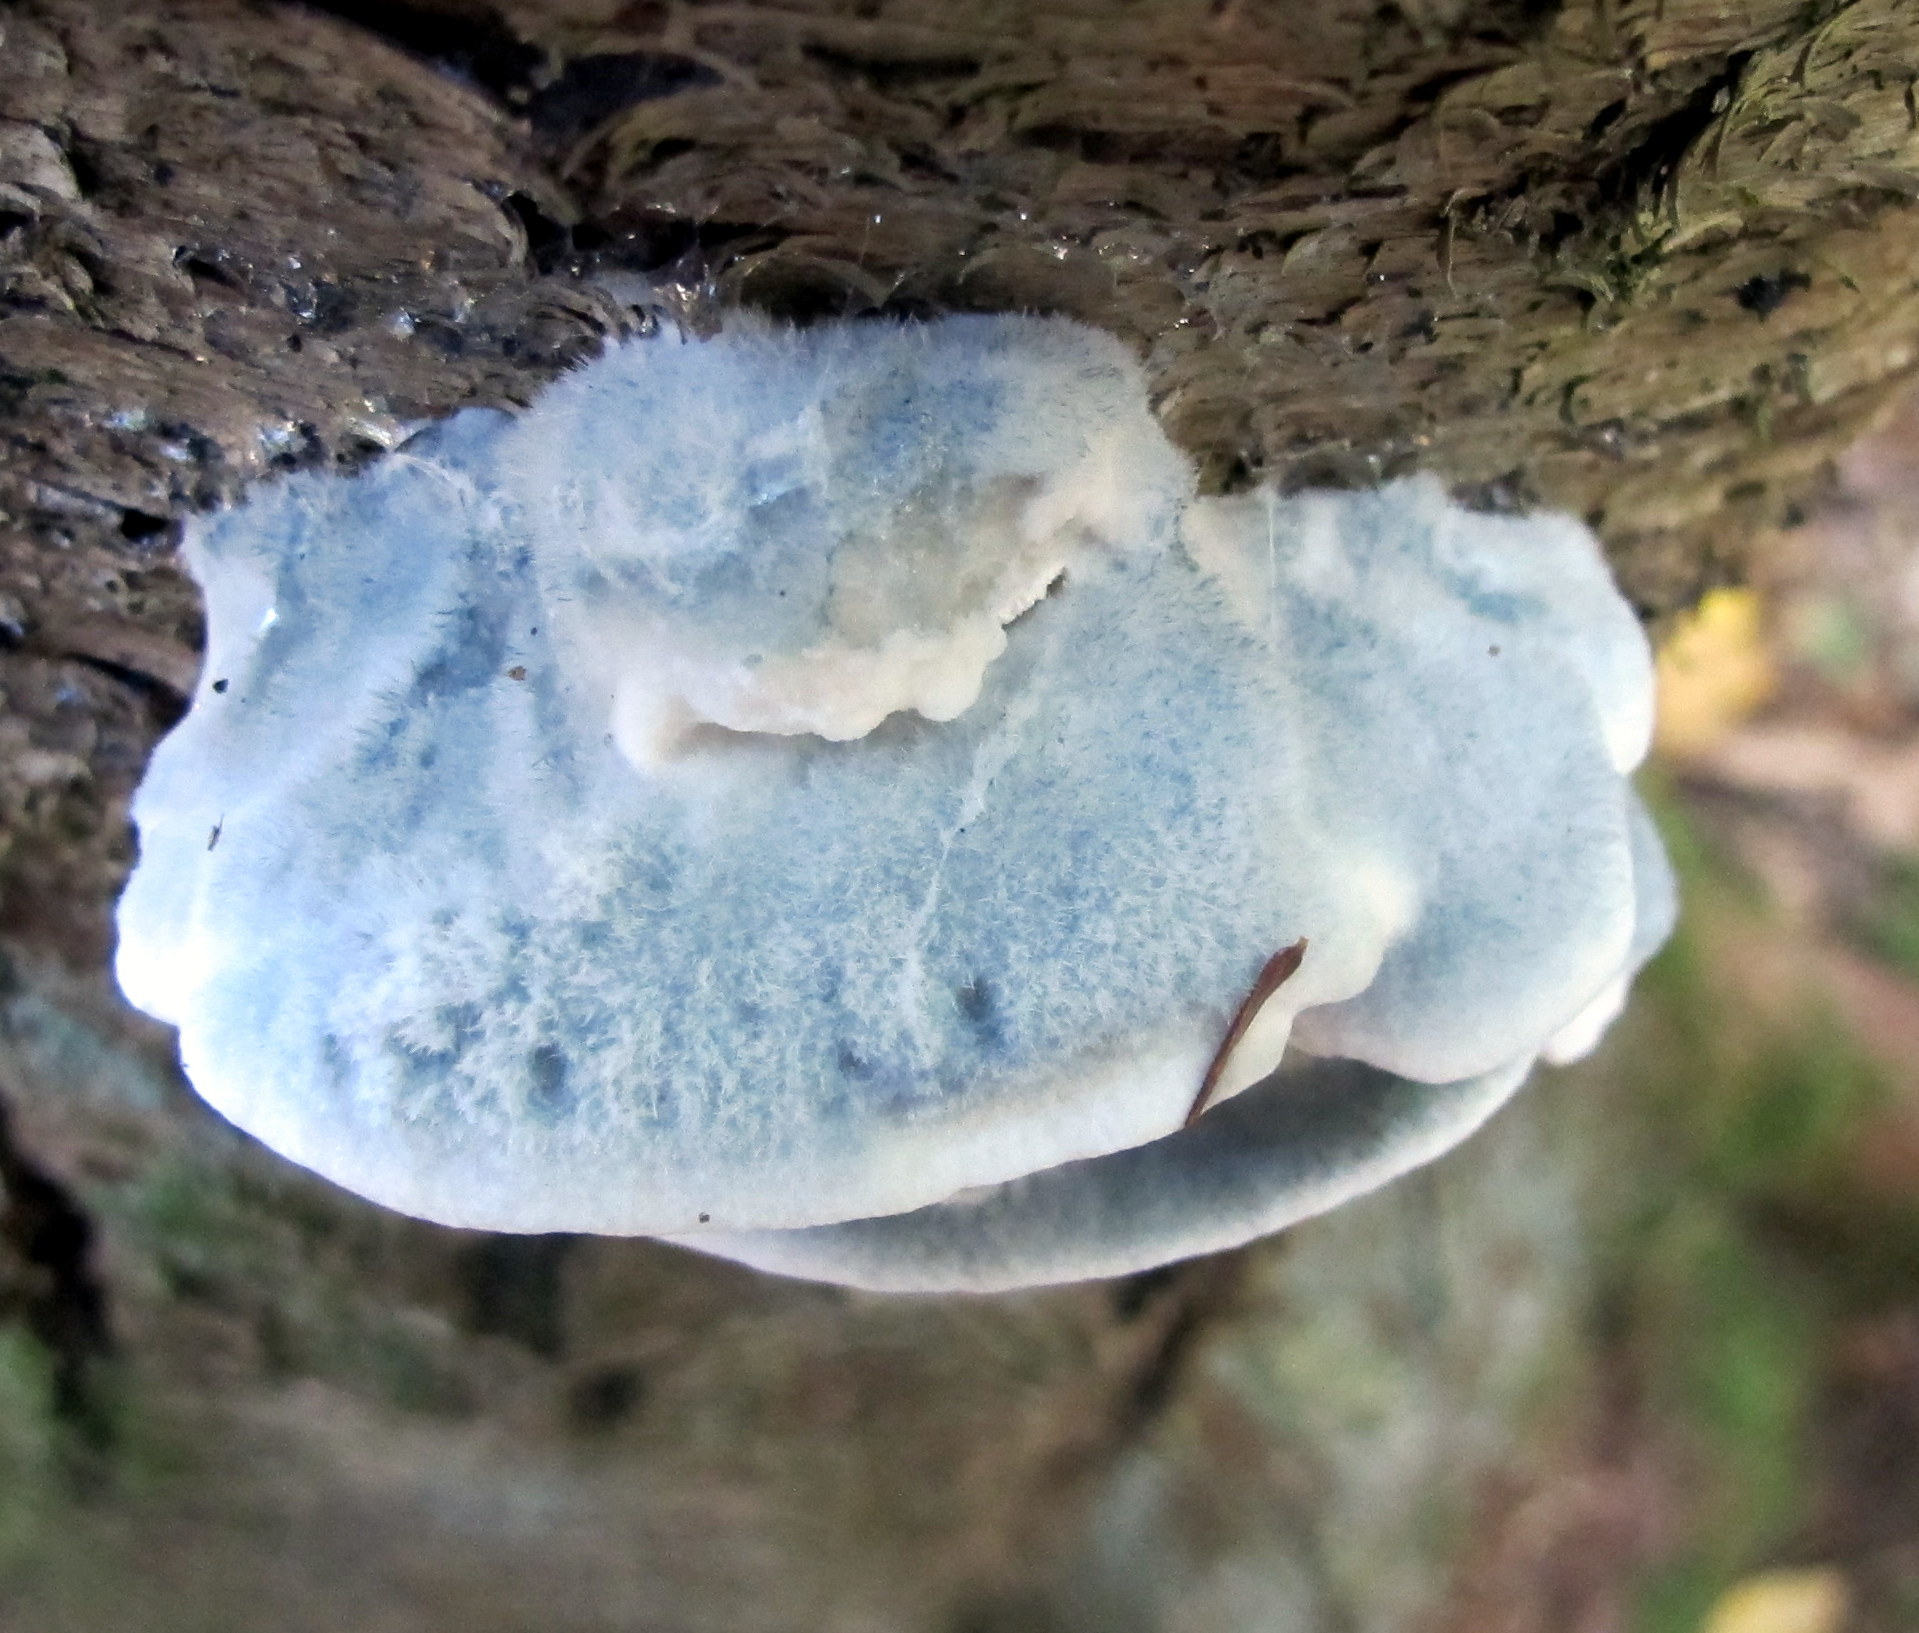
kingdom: Fungi
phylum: Basidiomycota
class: Agaricomycetes
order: Polyporales
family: Polyporaceae
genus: Cyanosporus
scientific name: Cyanosporus caesius
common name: Blue cheese polypore
